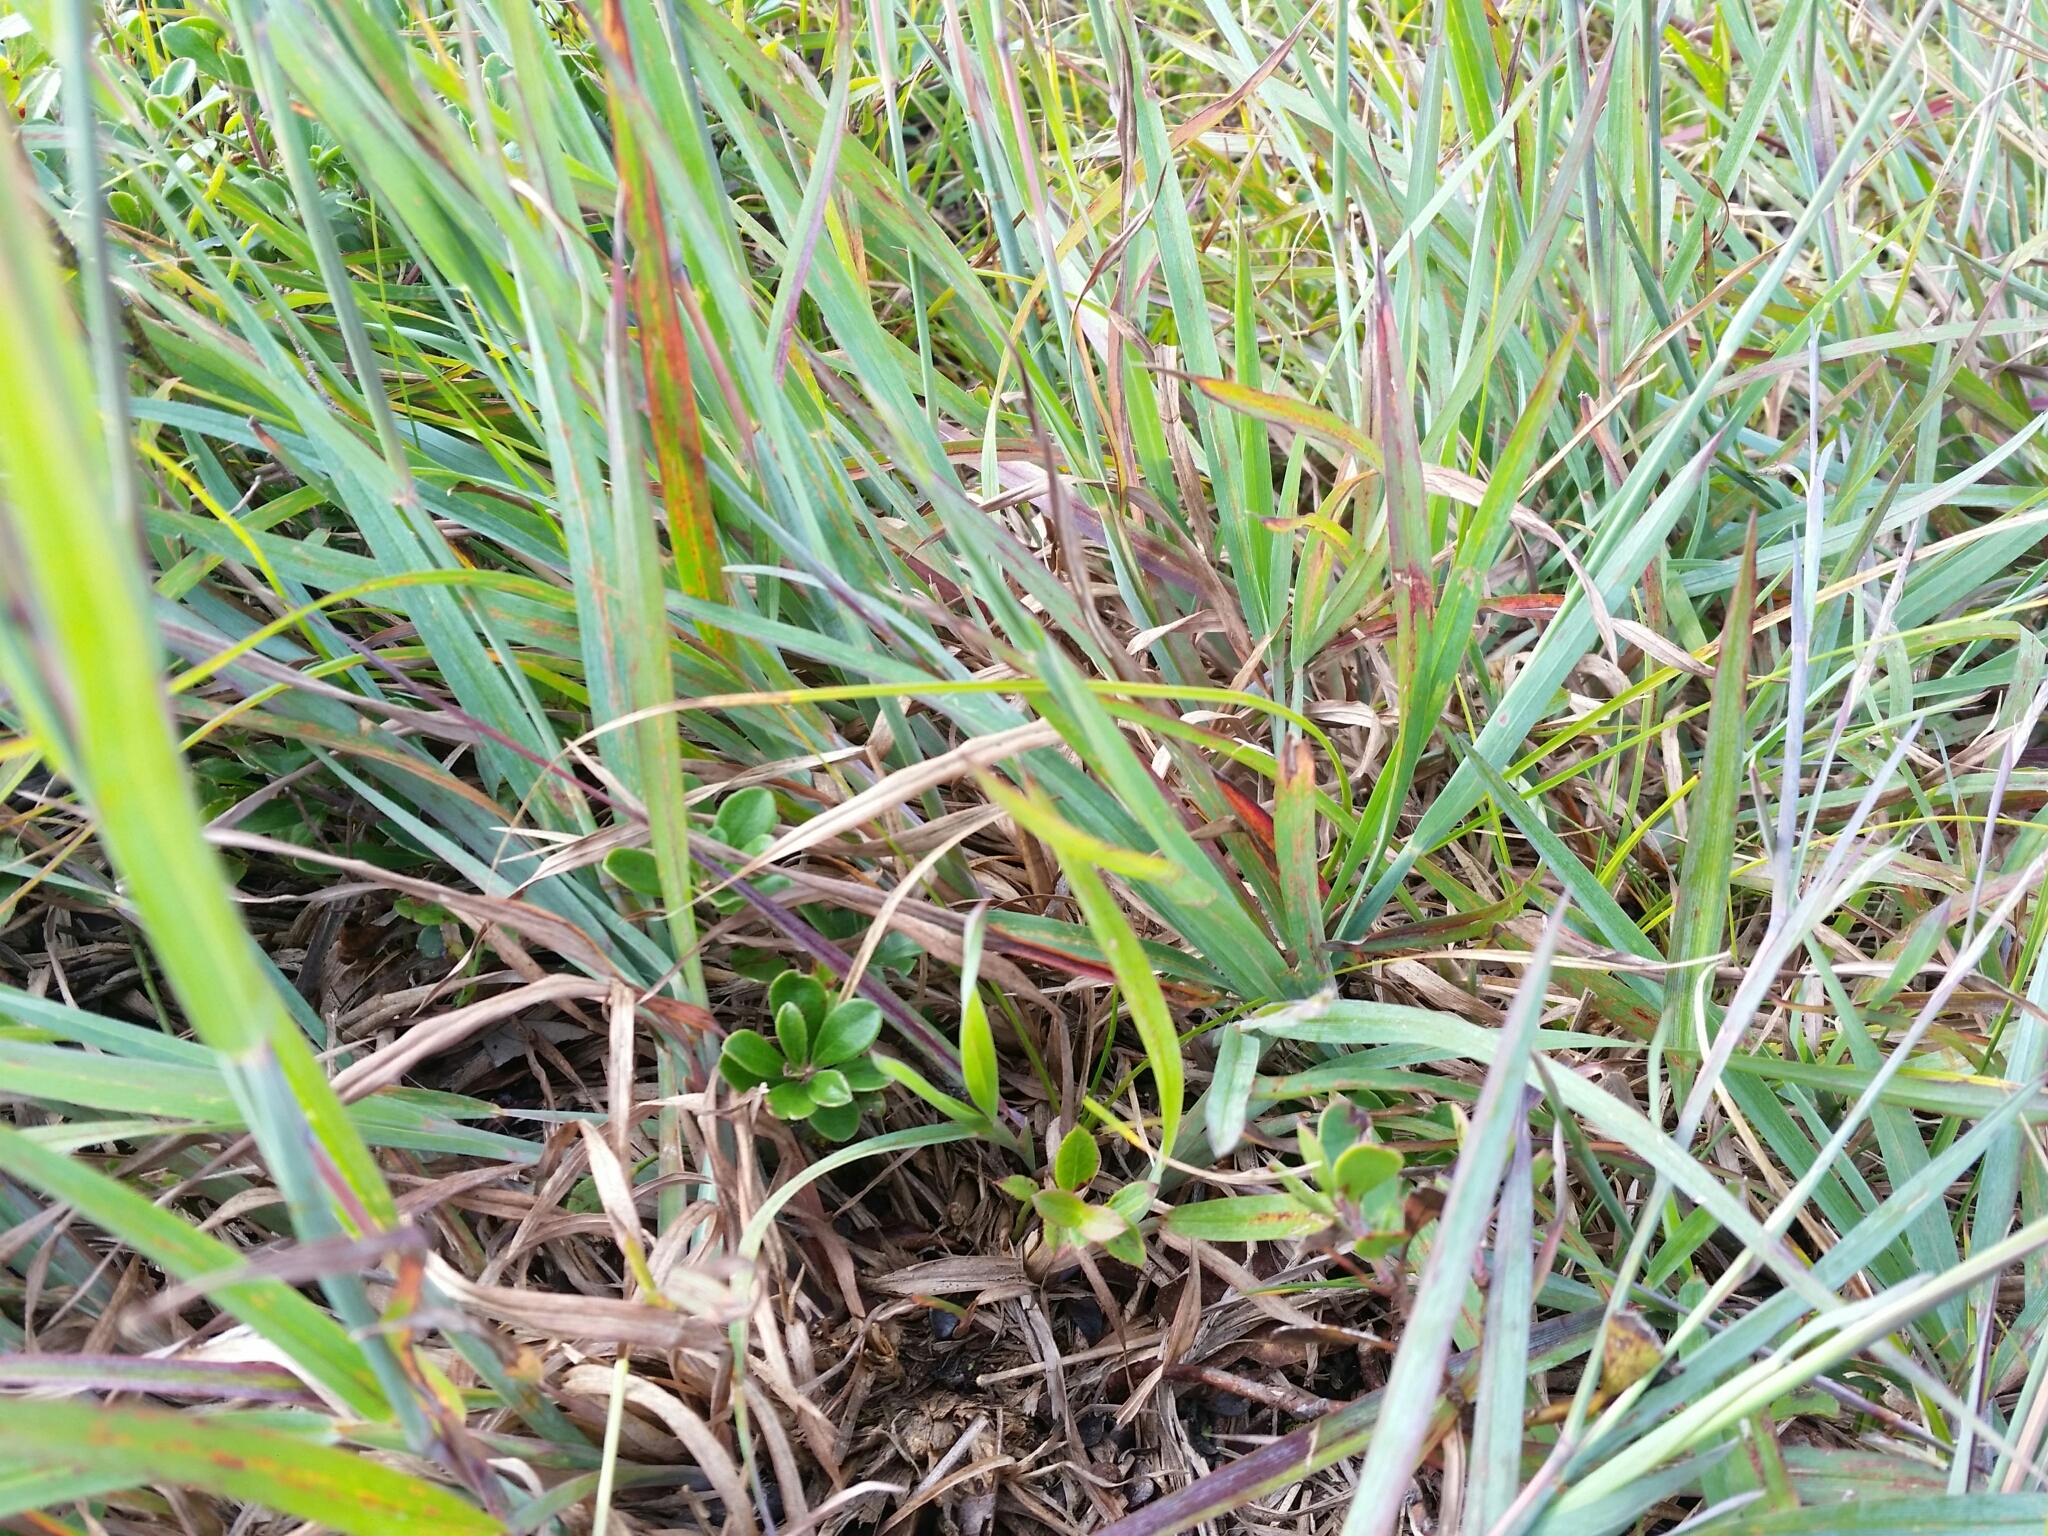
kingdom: Plantae
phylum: Tracheophyta
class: Liliopsida
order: Poales
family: Poaceae
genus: Schizachyrium
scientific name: Schizachyrium scoparium
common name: Little bluestem
